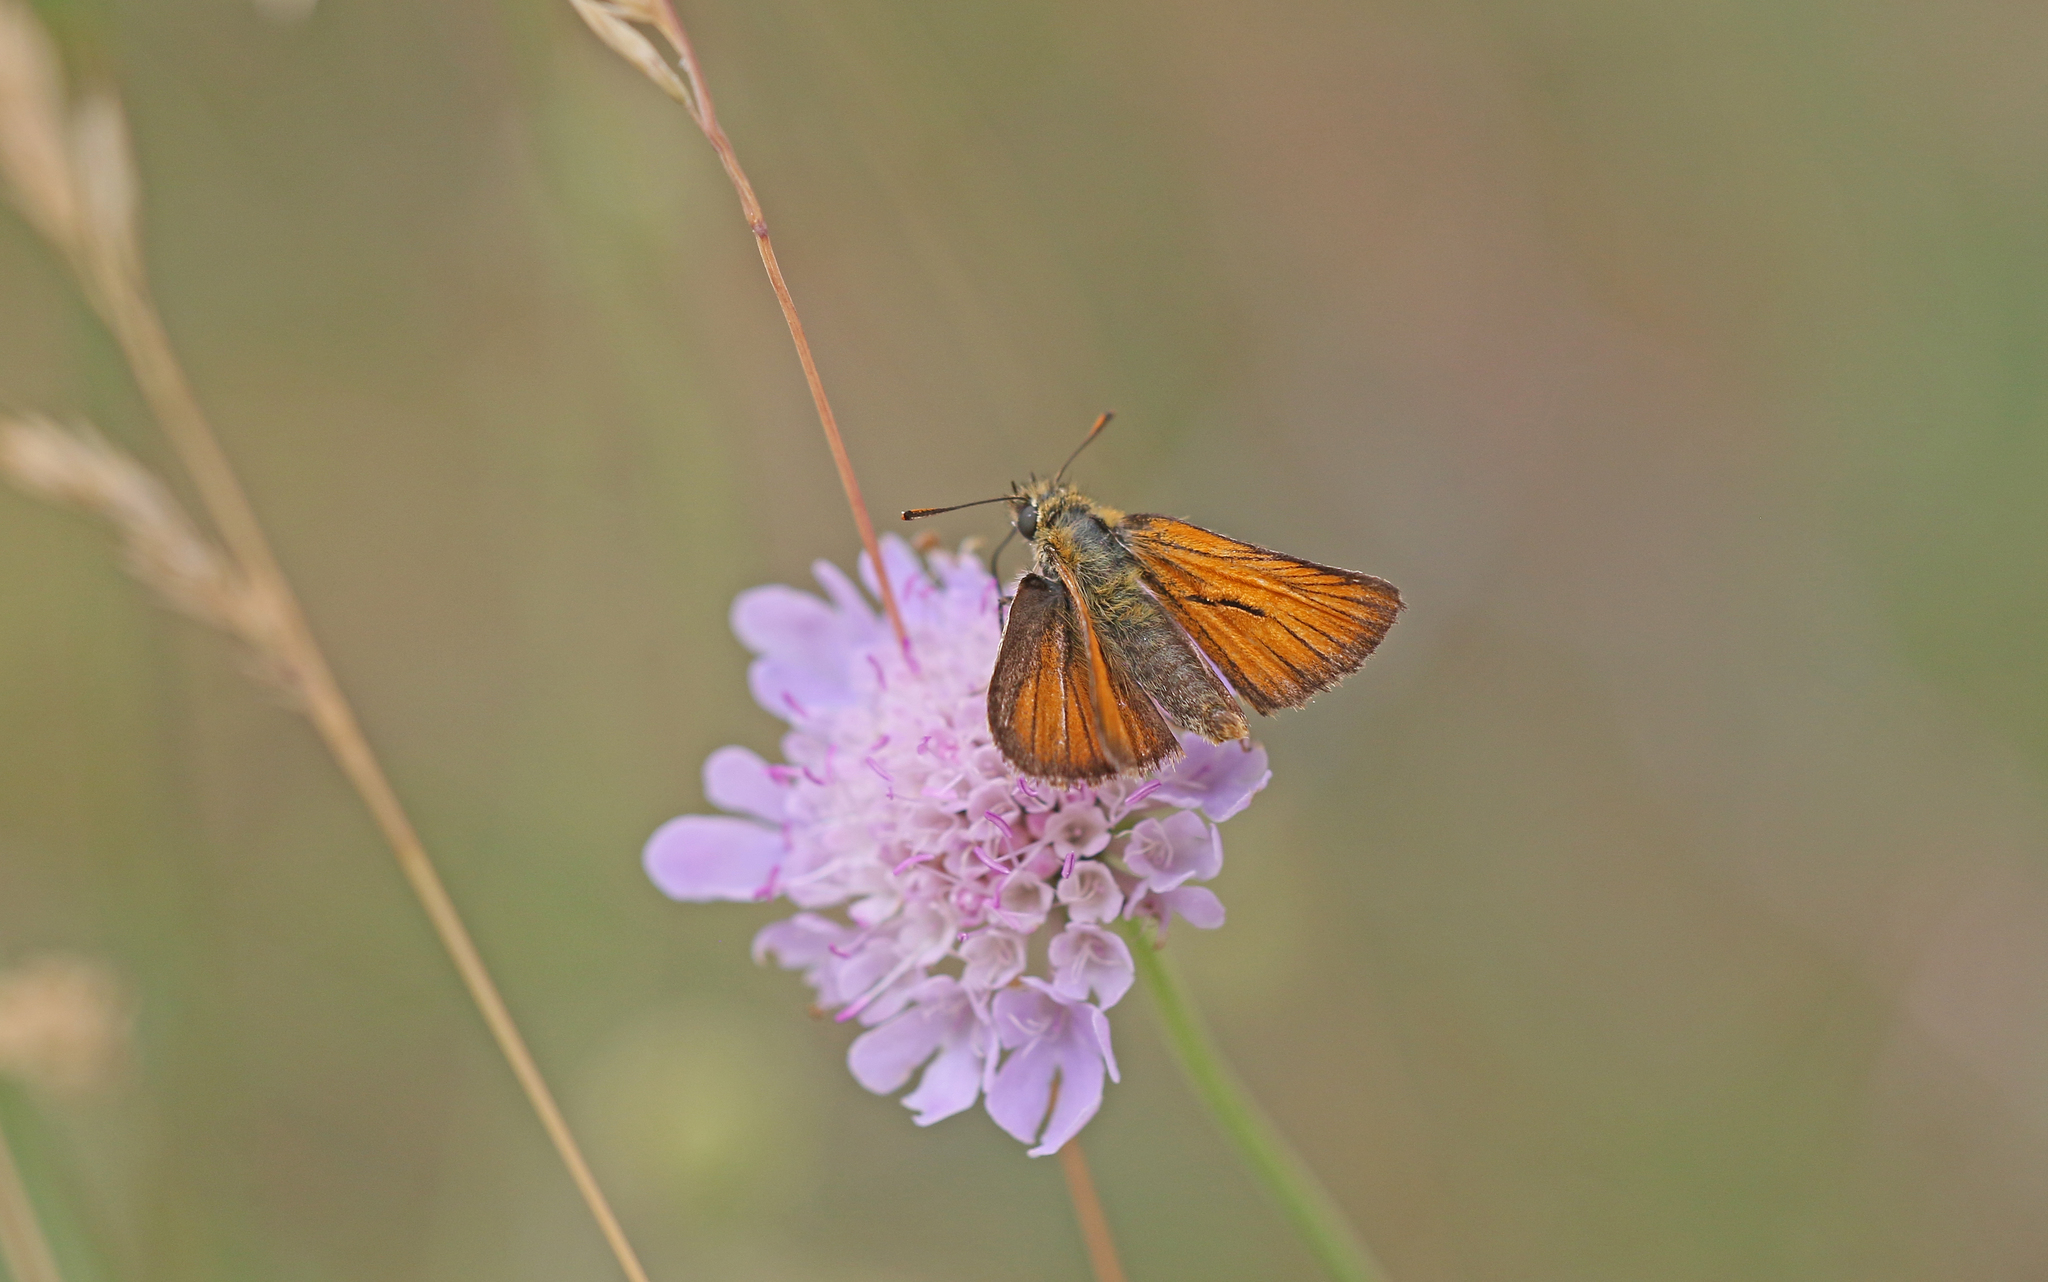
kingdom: Animalia
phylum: Arthropoda
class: Insecta
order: Lepidoptera
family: Hesperiidae
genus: Thymelicus
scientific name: Thymelicus sylvestris
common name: Small skipper
